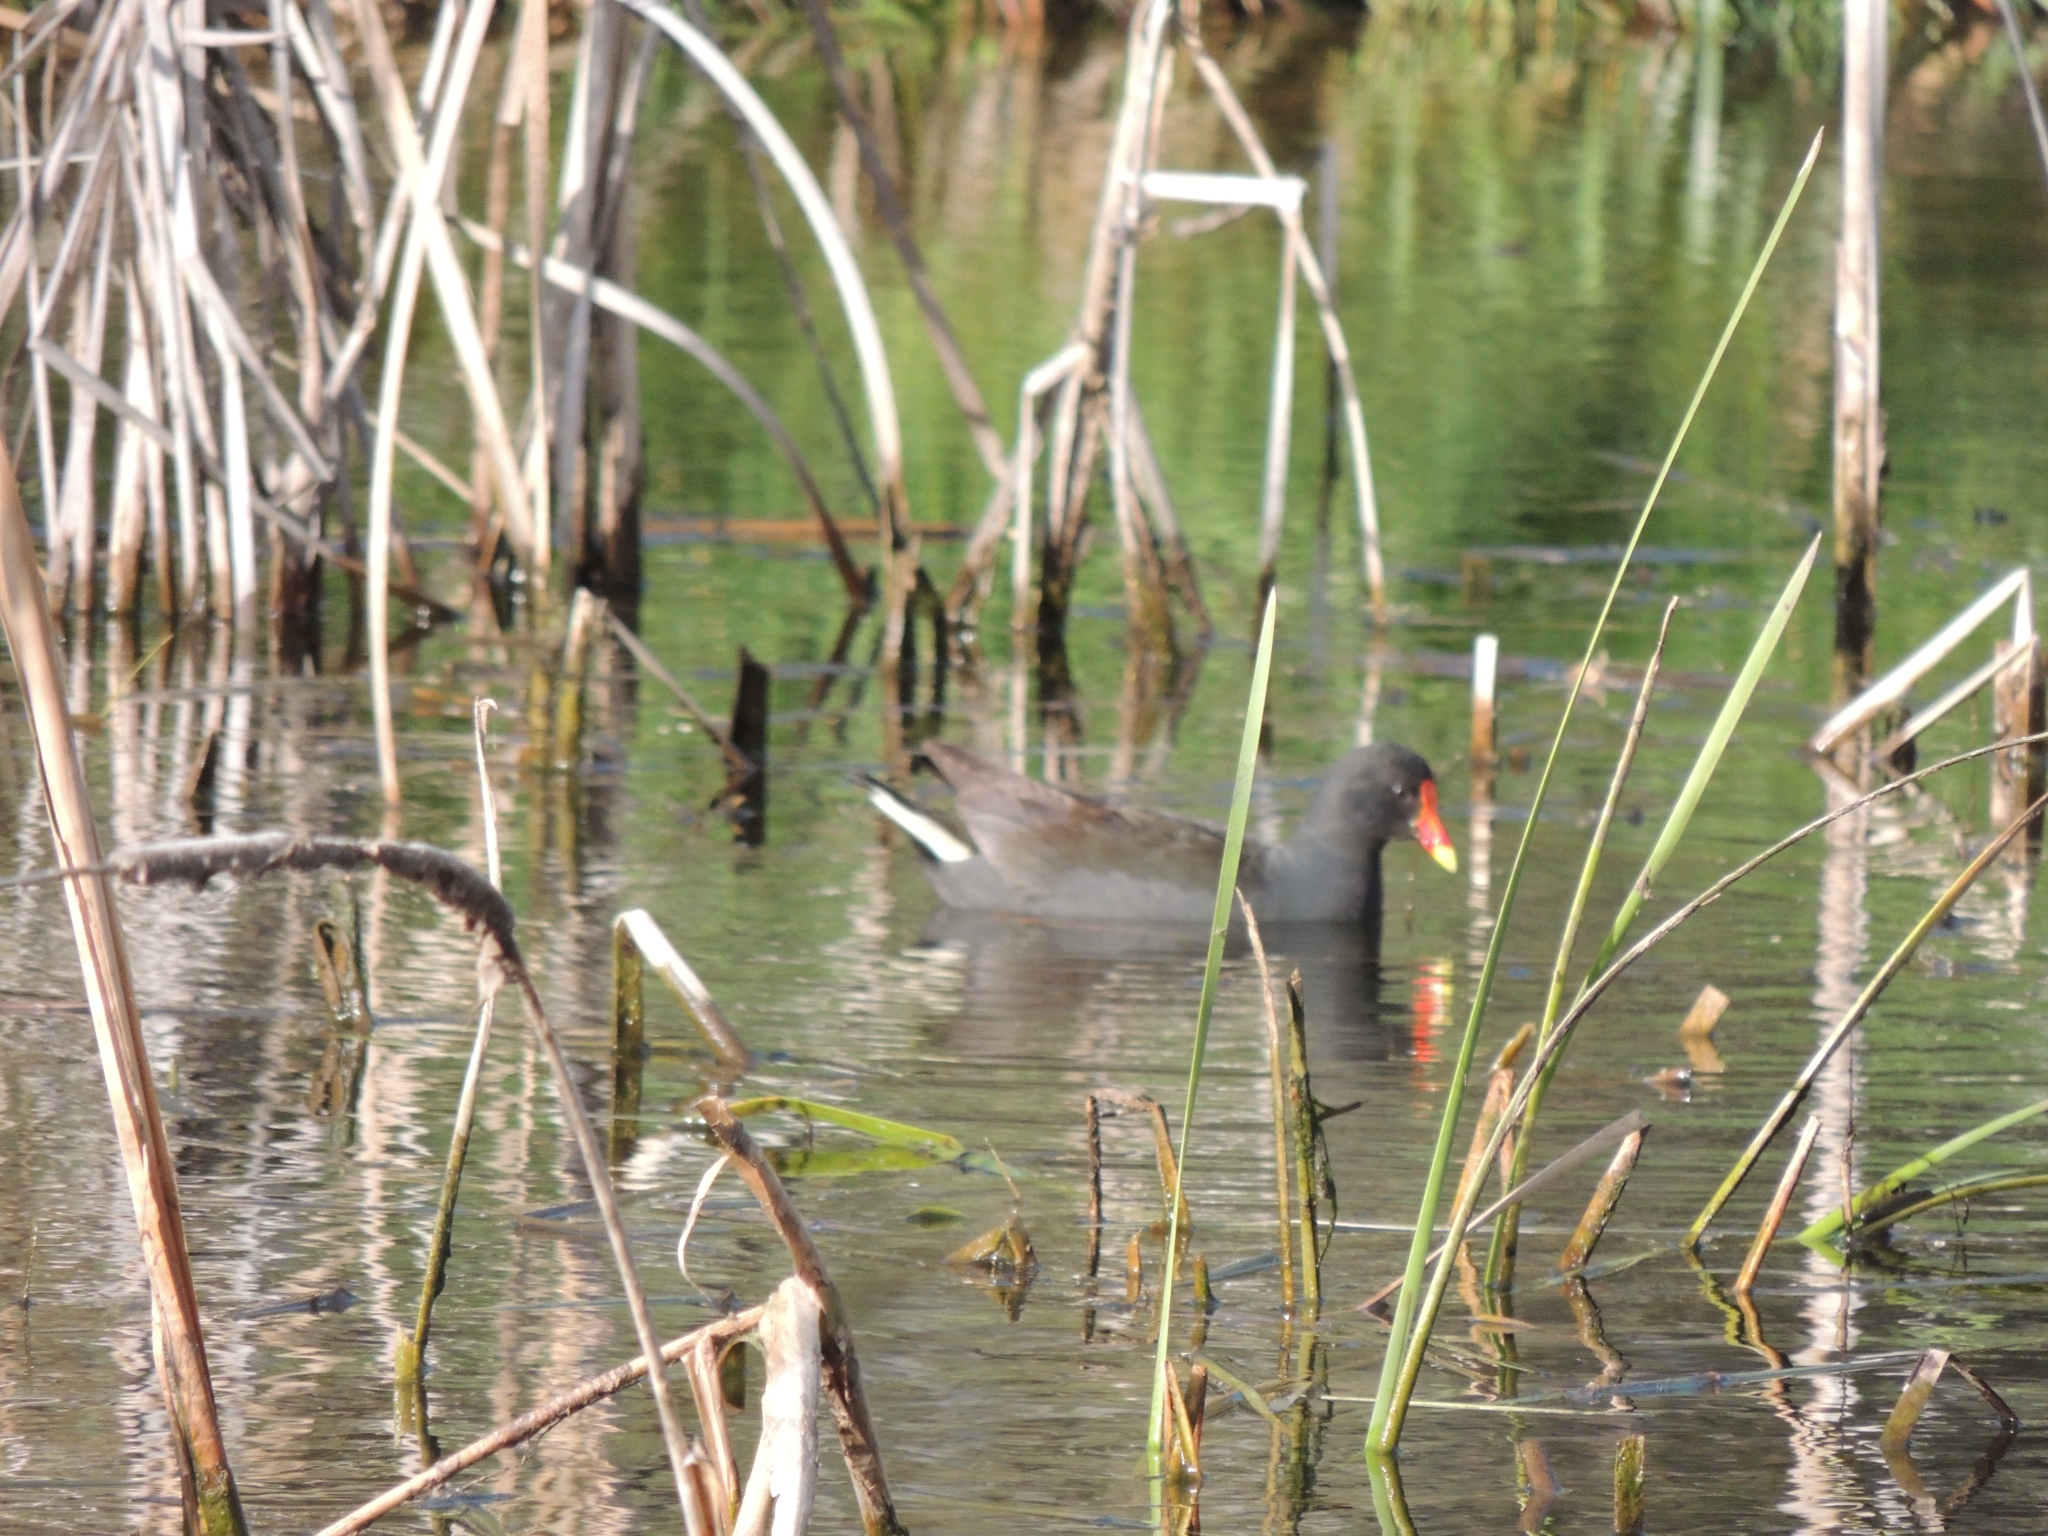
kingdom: Animalia
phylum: Chordata
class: Aves
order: Gruiformes
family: Rallidae
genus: Gallinula
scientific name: Gallinula tenebrosa
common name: Dusky moorhen
